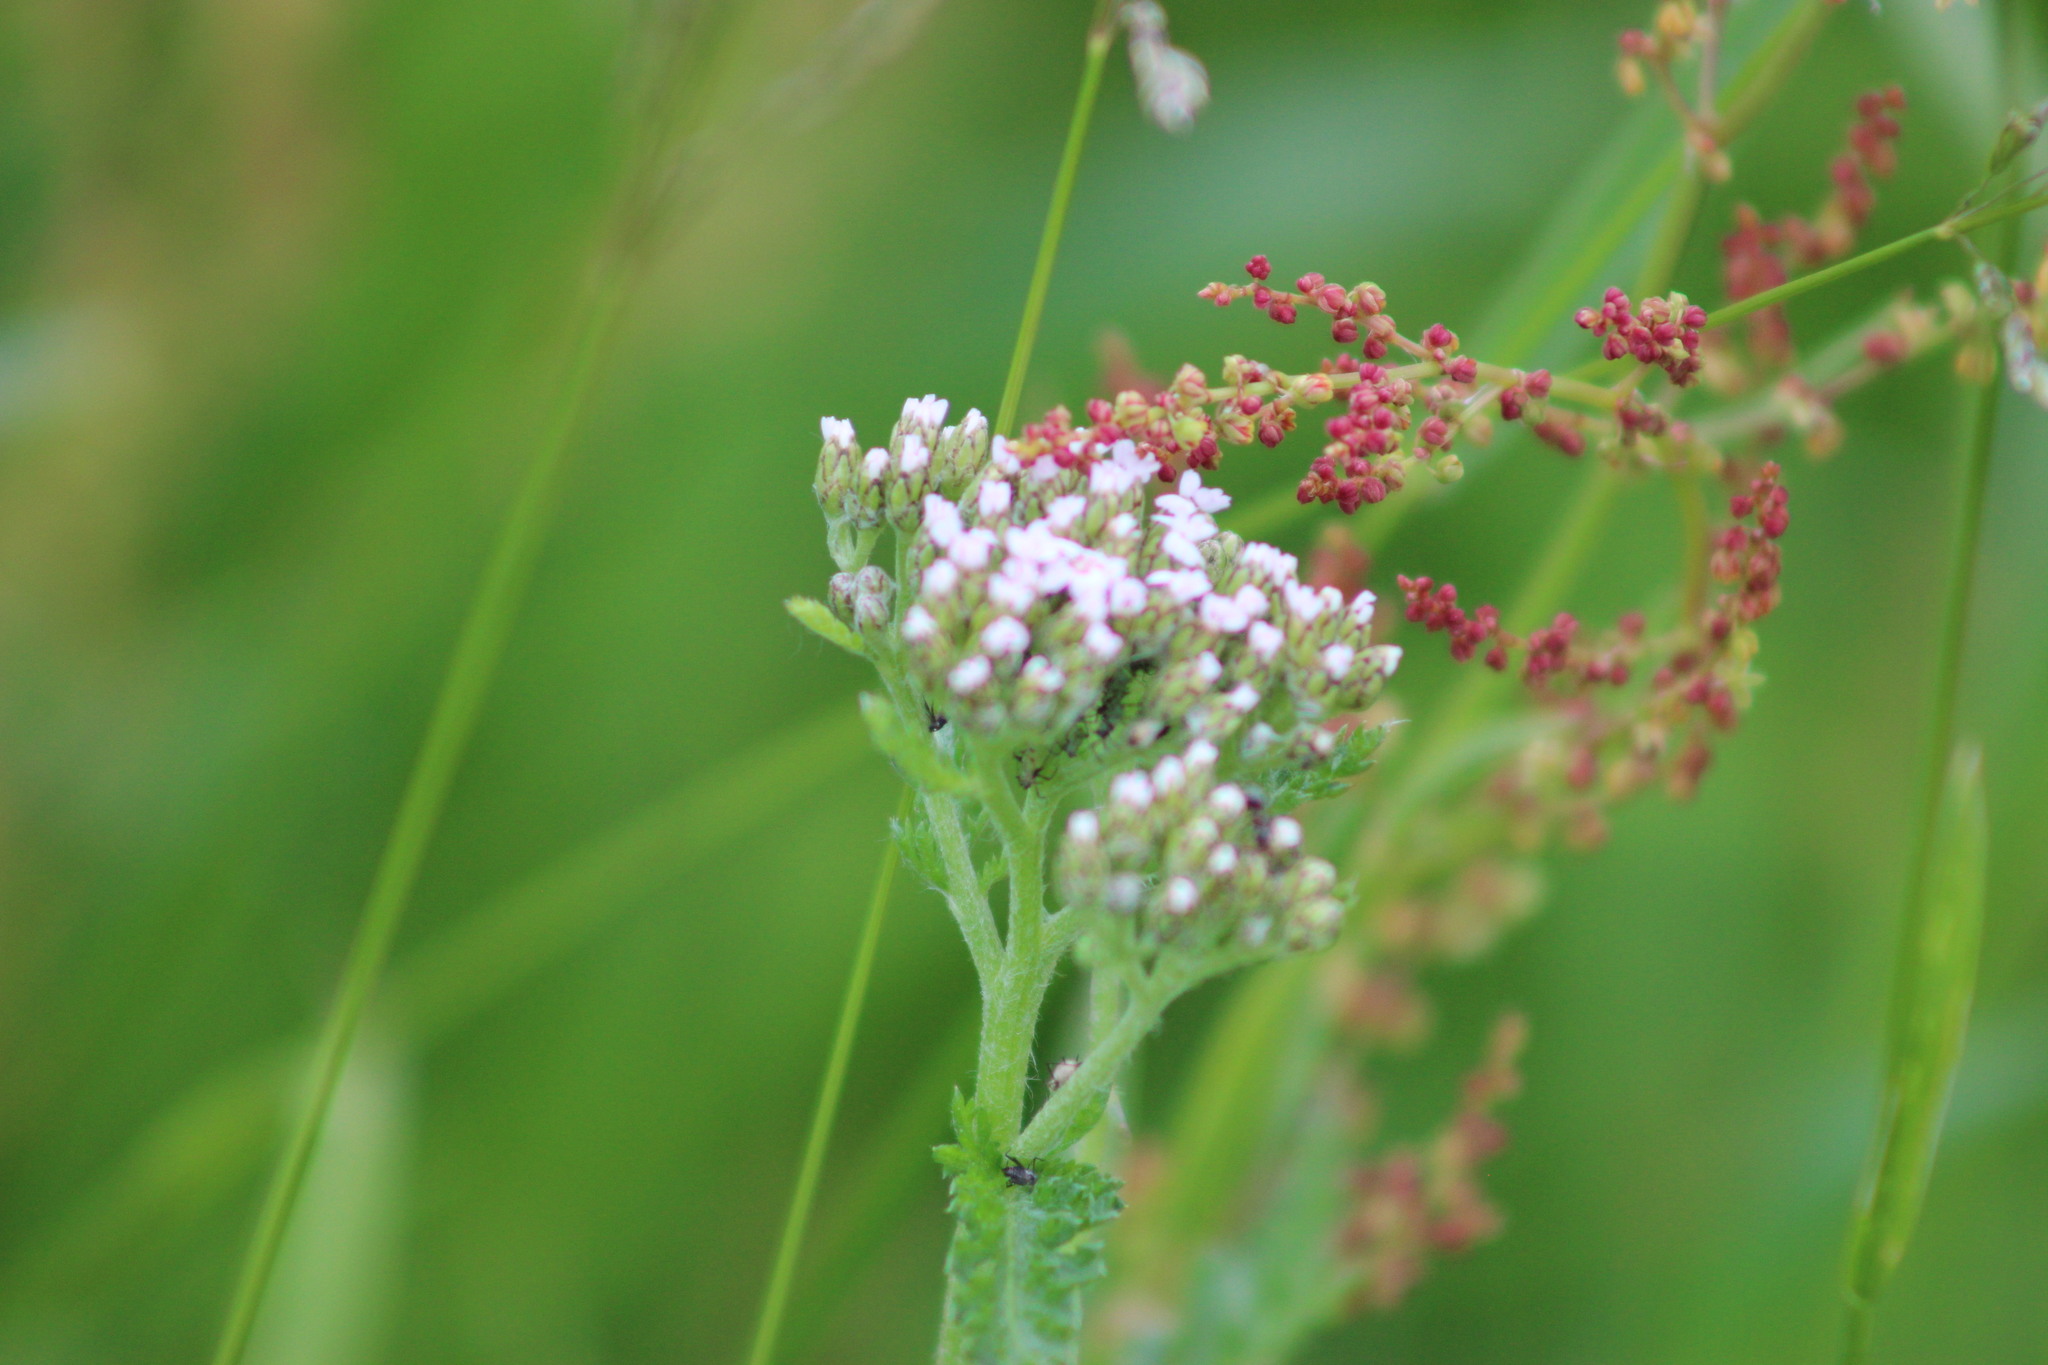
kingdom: Plantae
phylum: Tracheophyta
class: Magnoliopsida
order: Asterales
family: Asteraceae
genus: Achillea
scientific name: Achillea millefolium
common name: Yarrow
